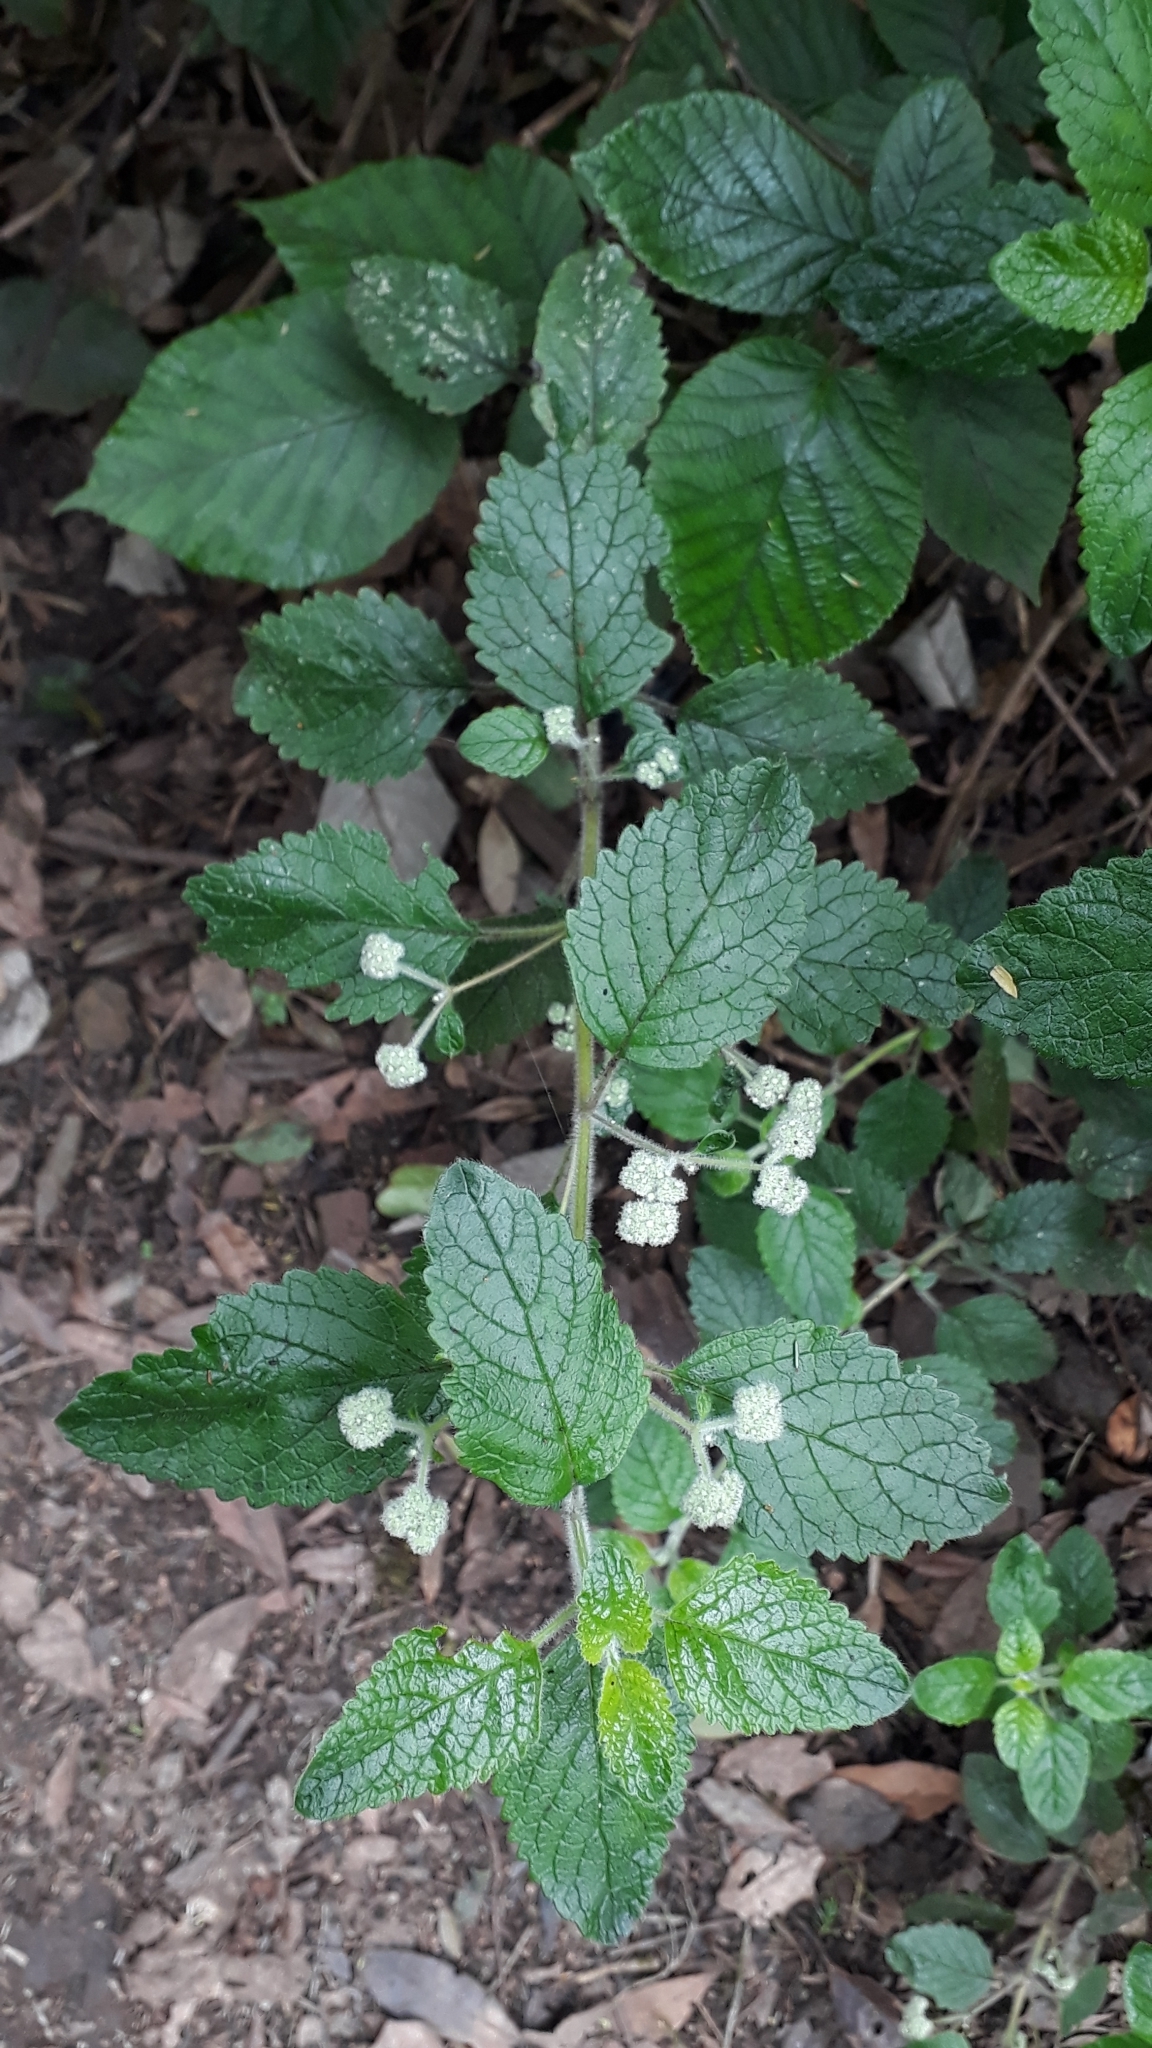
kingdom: Plantae
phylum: Tracheophyta
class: Magnoliopsida
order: Lamiales
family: Lamiaceae
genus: Bystropogon
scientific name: Bystropogon canariensis
